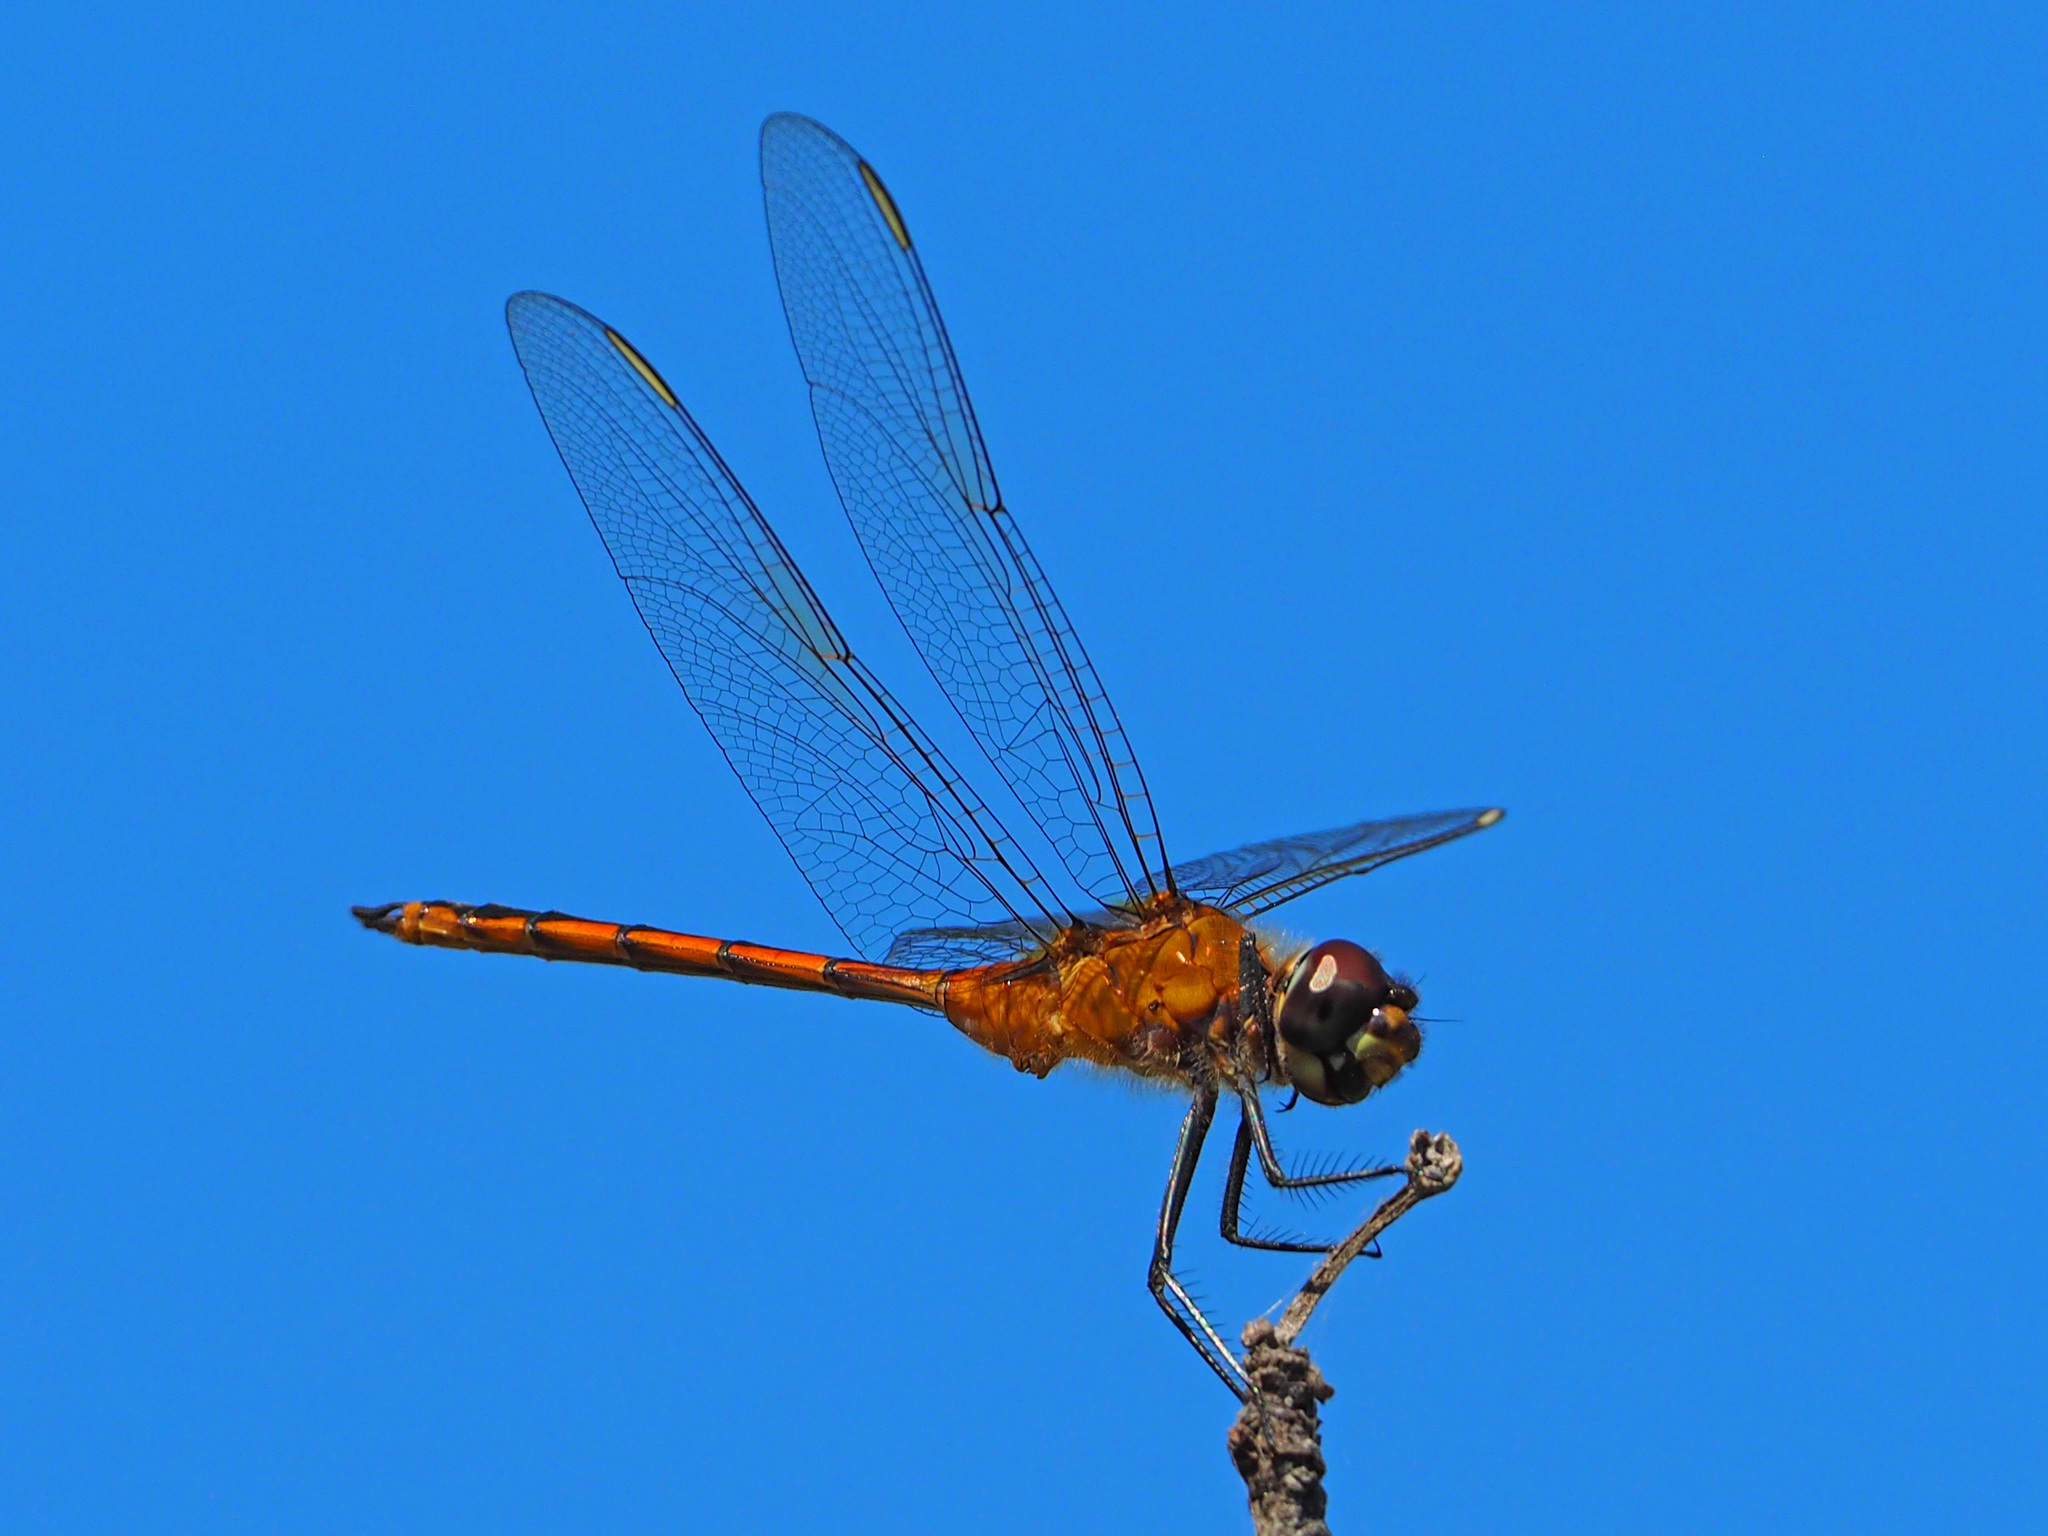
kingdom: Animalia
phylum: Arthropoda
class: Insecta
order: Odonata
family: Libellulidae
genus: Brachymesia
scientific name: Brachymesia gravida
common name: Four-spotted pennant
